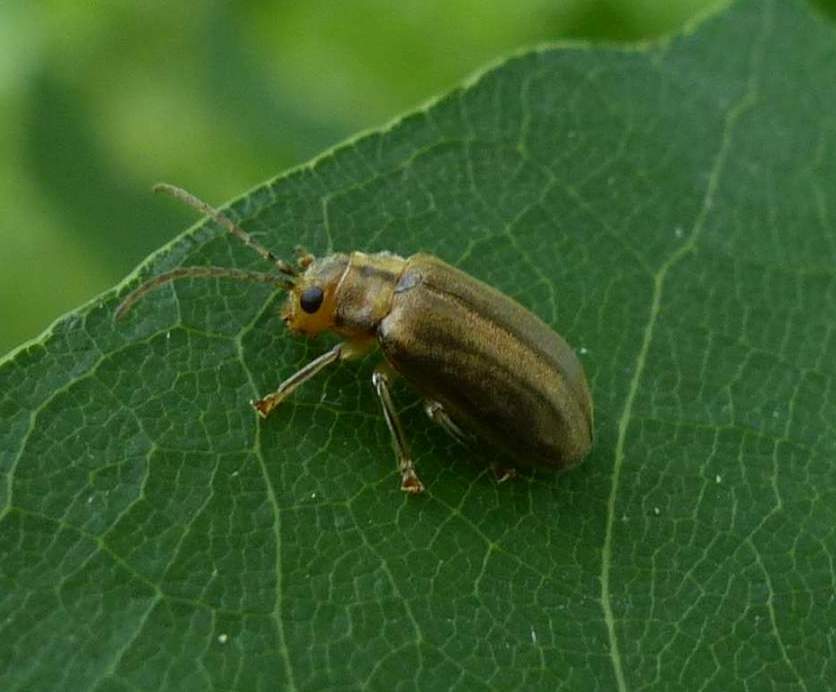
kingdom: Animalia
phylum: Arthropoda
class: Insecta
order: Coleoptera
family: Chrysomelidae
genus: Ophraella
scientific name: Ophraella notata
